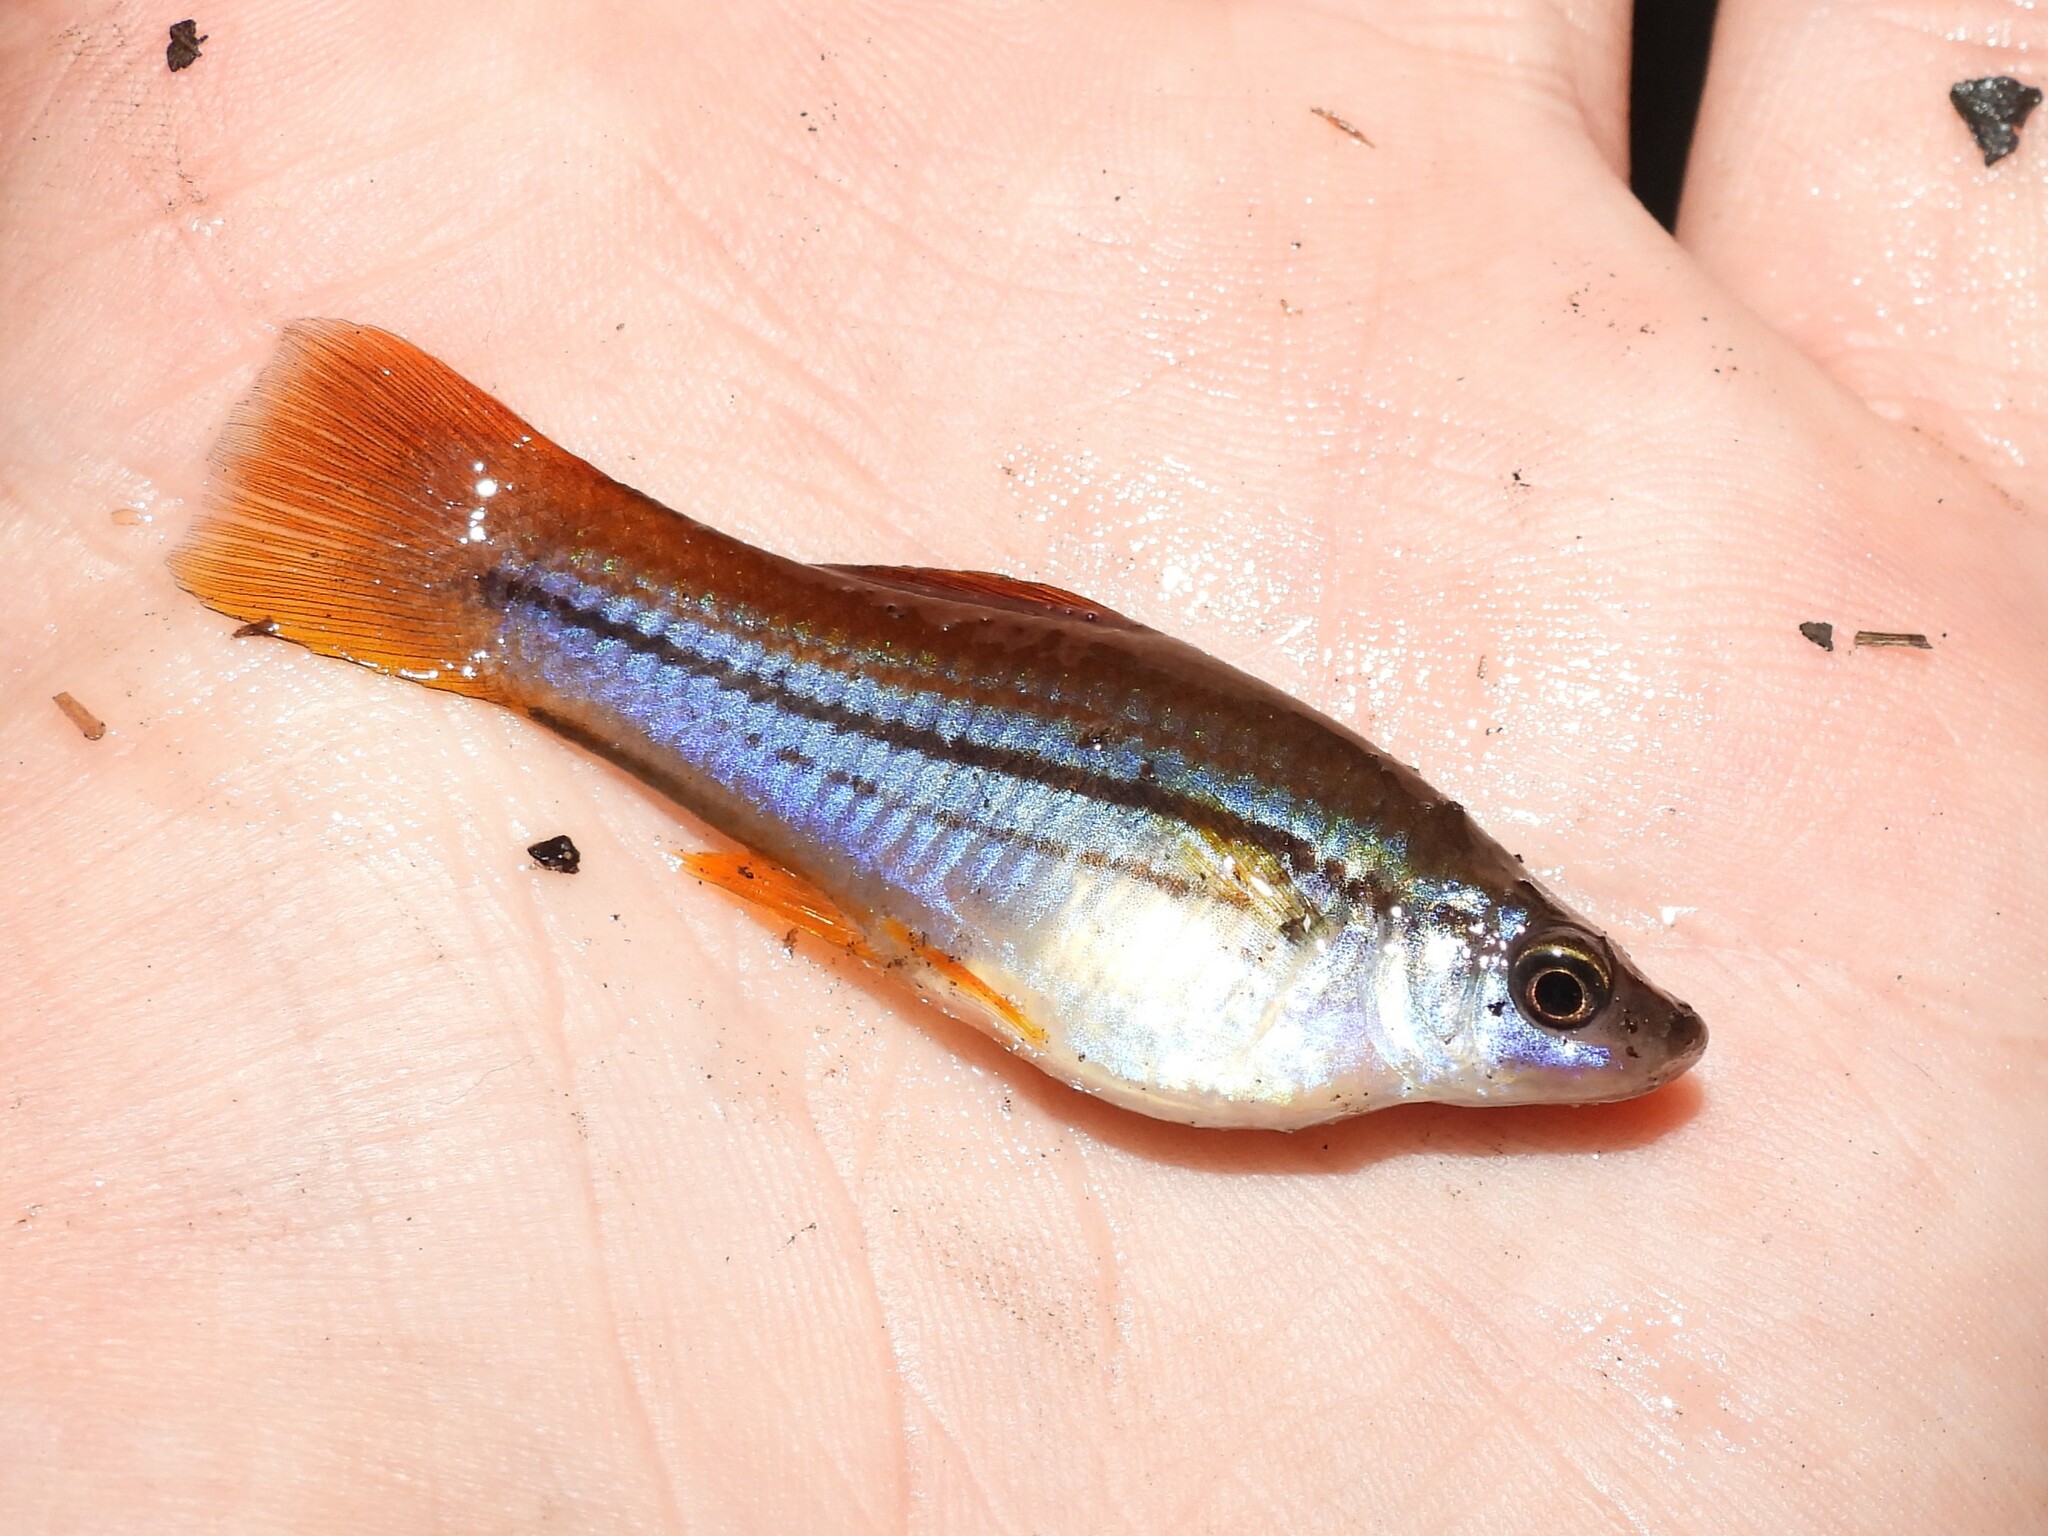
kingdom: Animalia
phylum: Chordata
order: Cyprinodontiformes
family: Poeciliidae
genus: Xiphophorus
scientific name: Xiphophorus hellerii
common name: Green swordtail
